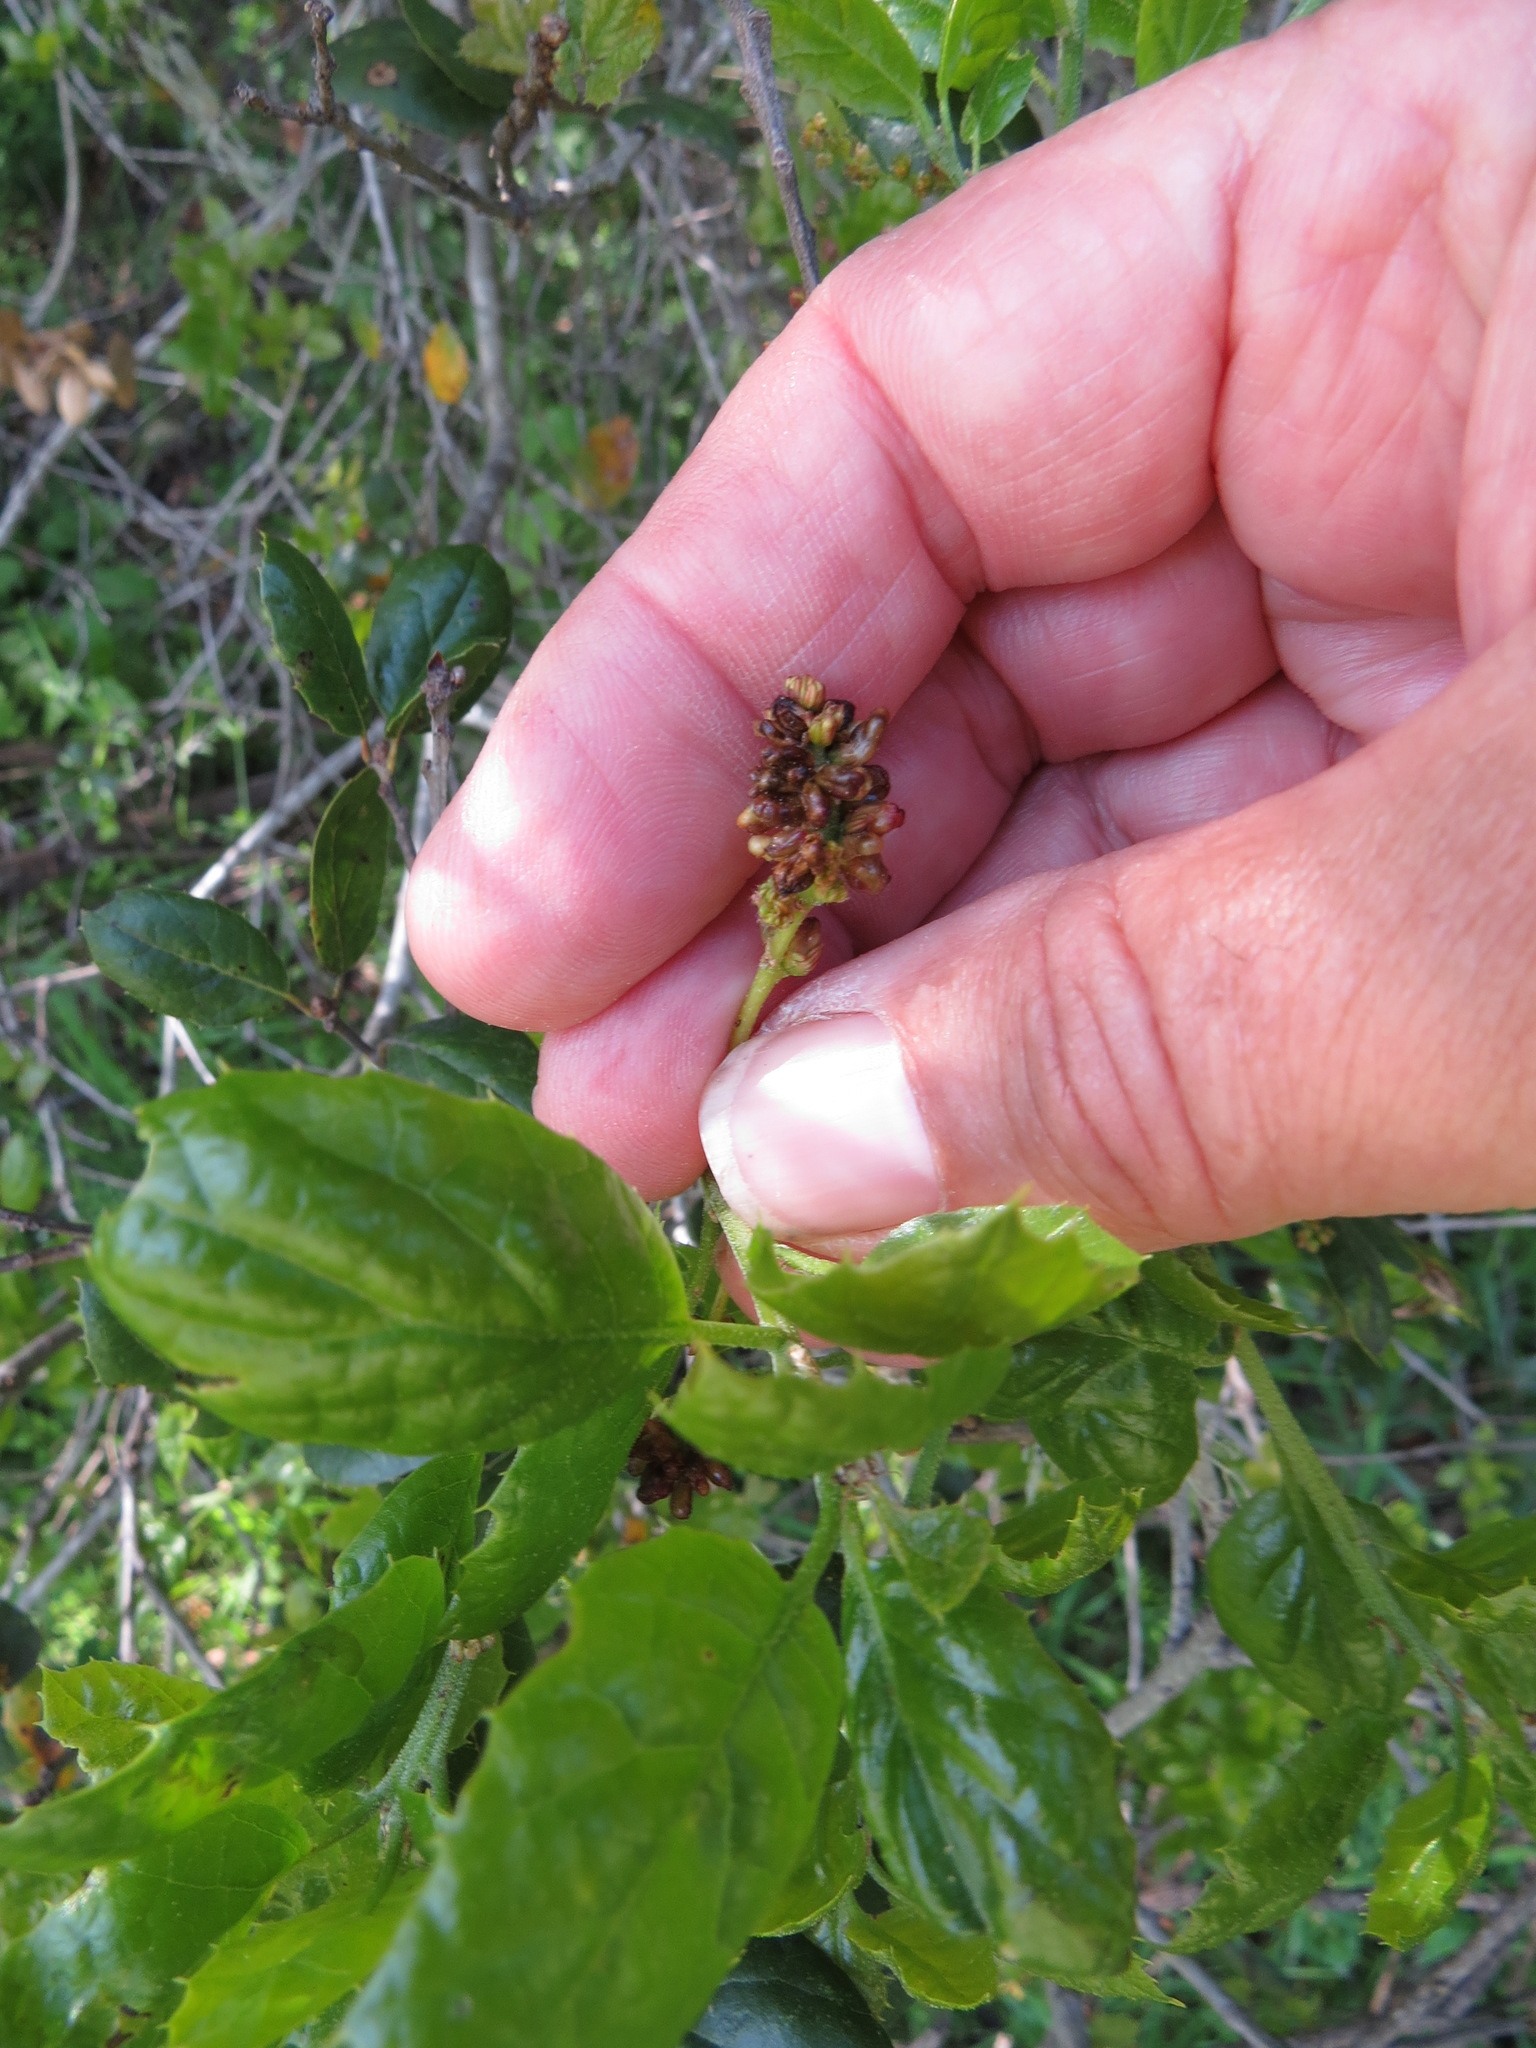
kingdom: Animalia
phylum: Arthropoda
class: Insecta
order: Hymenoptera
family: Cynipidae
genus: Dryocosmus
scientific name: Dryocosmus
